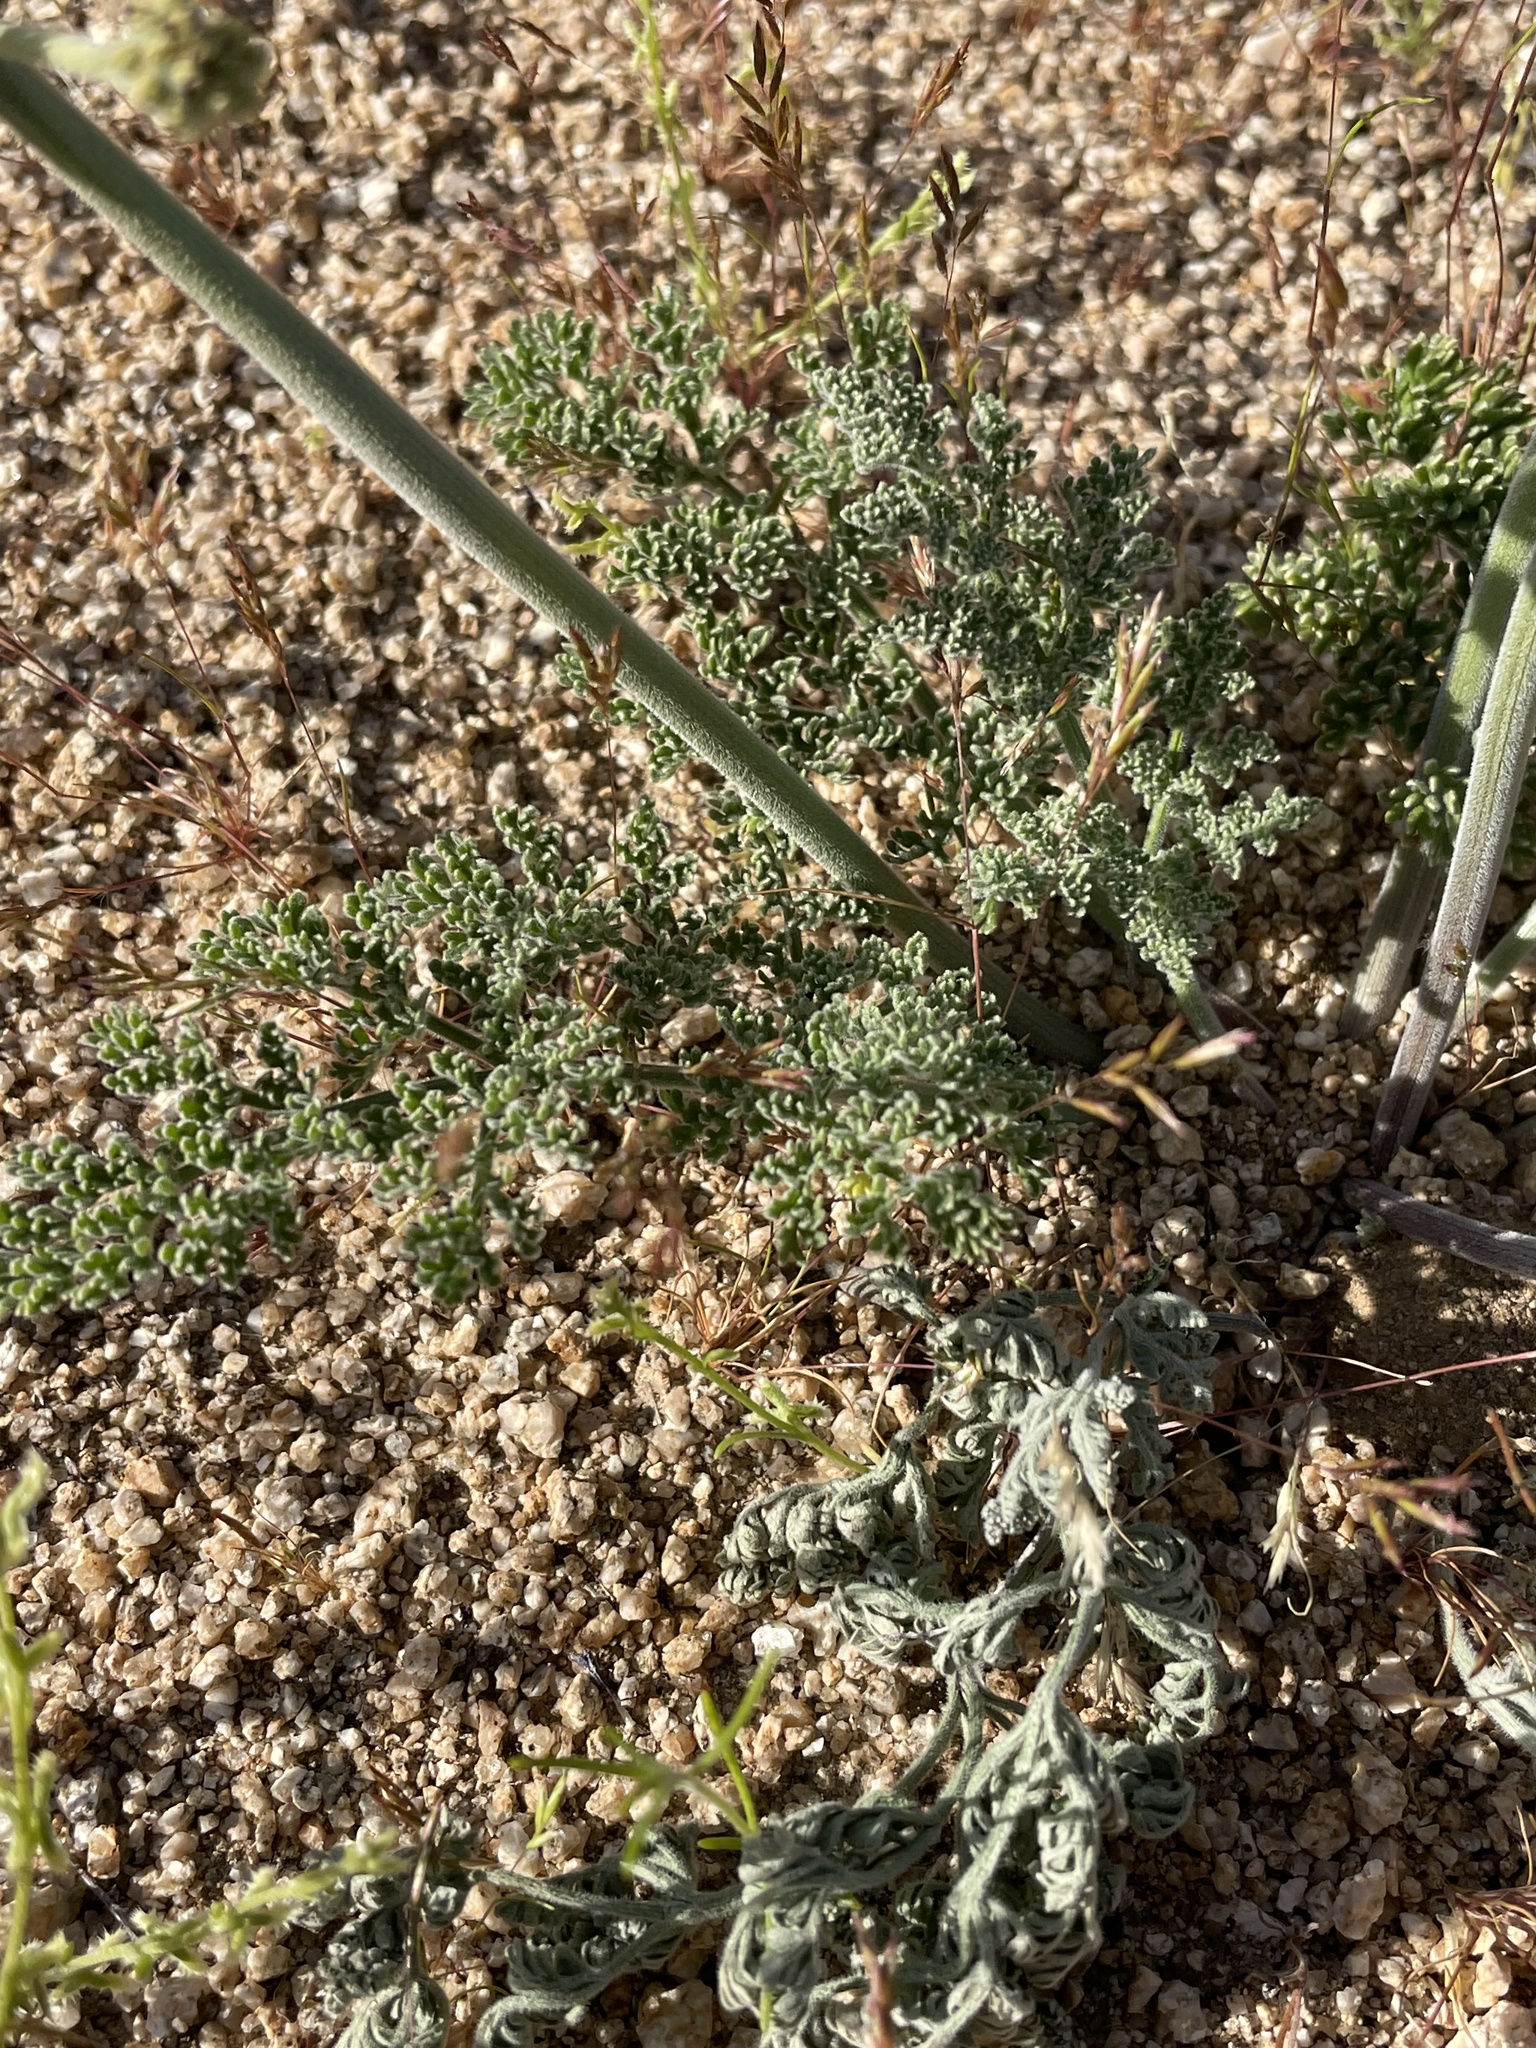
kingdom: Plantae
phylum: Tracheophyta
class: Magnoliopsida
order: Apiales
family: Apiaceae
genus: Lomatium
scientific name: Lomatium mohavense
